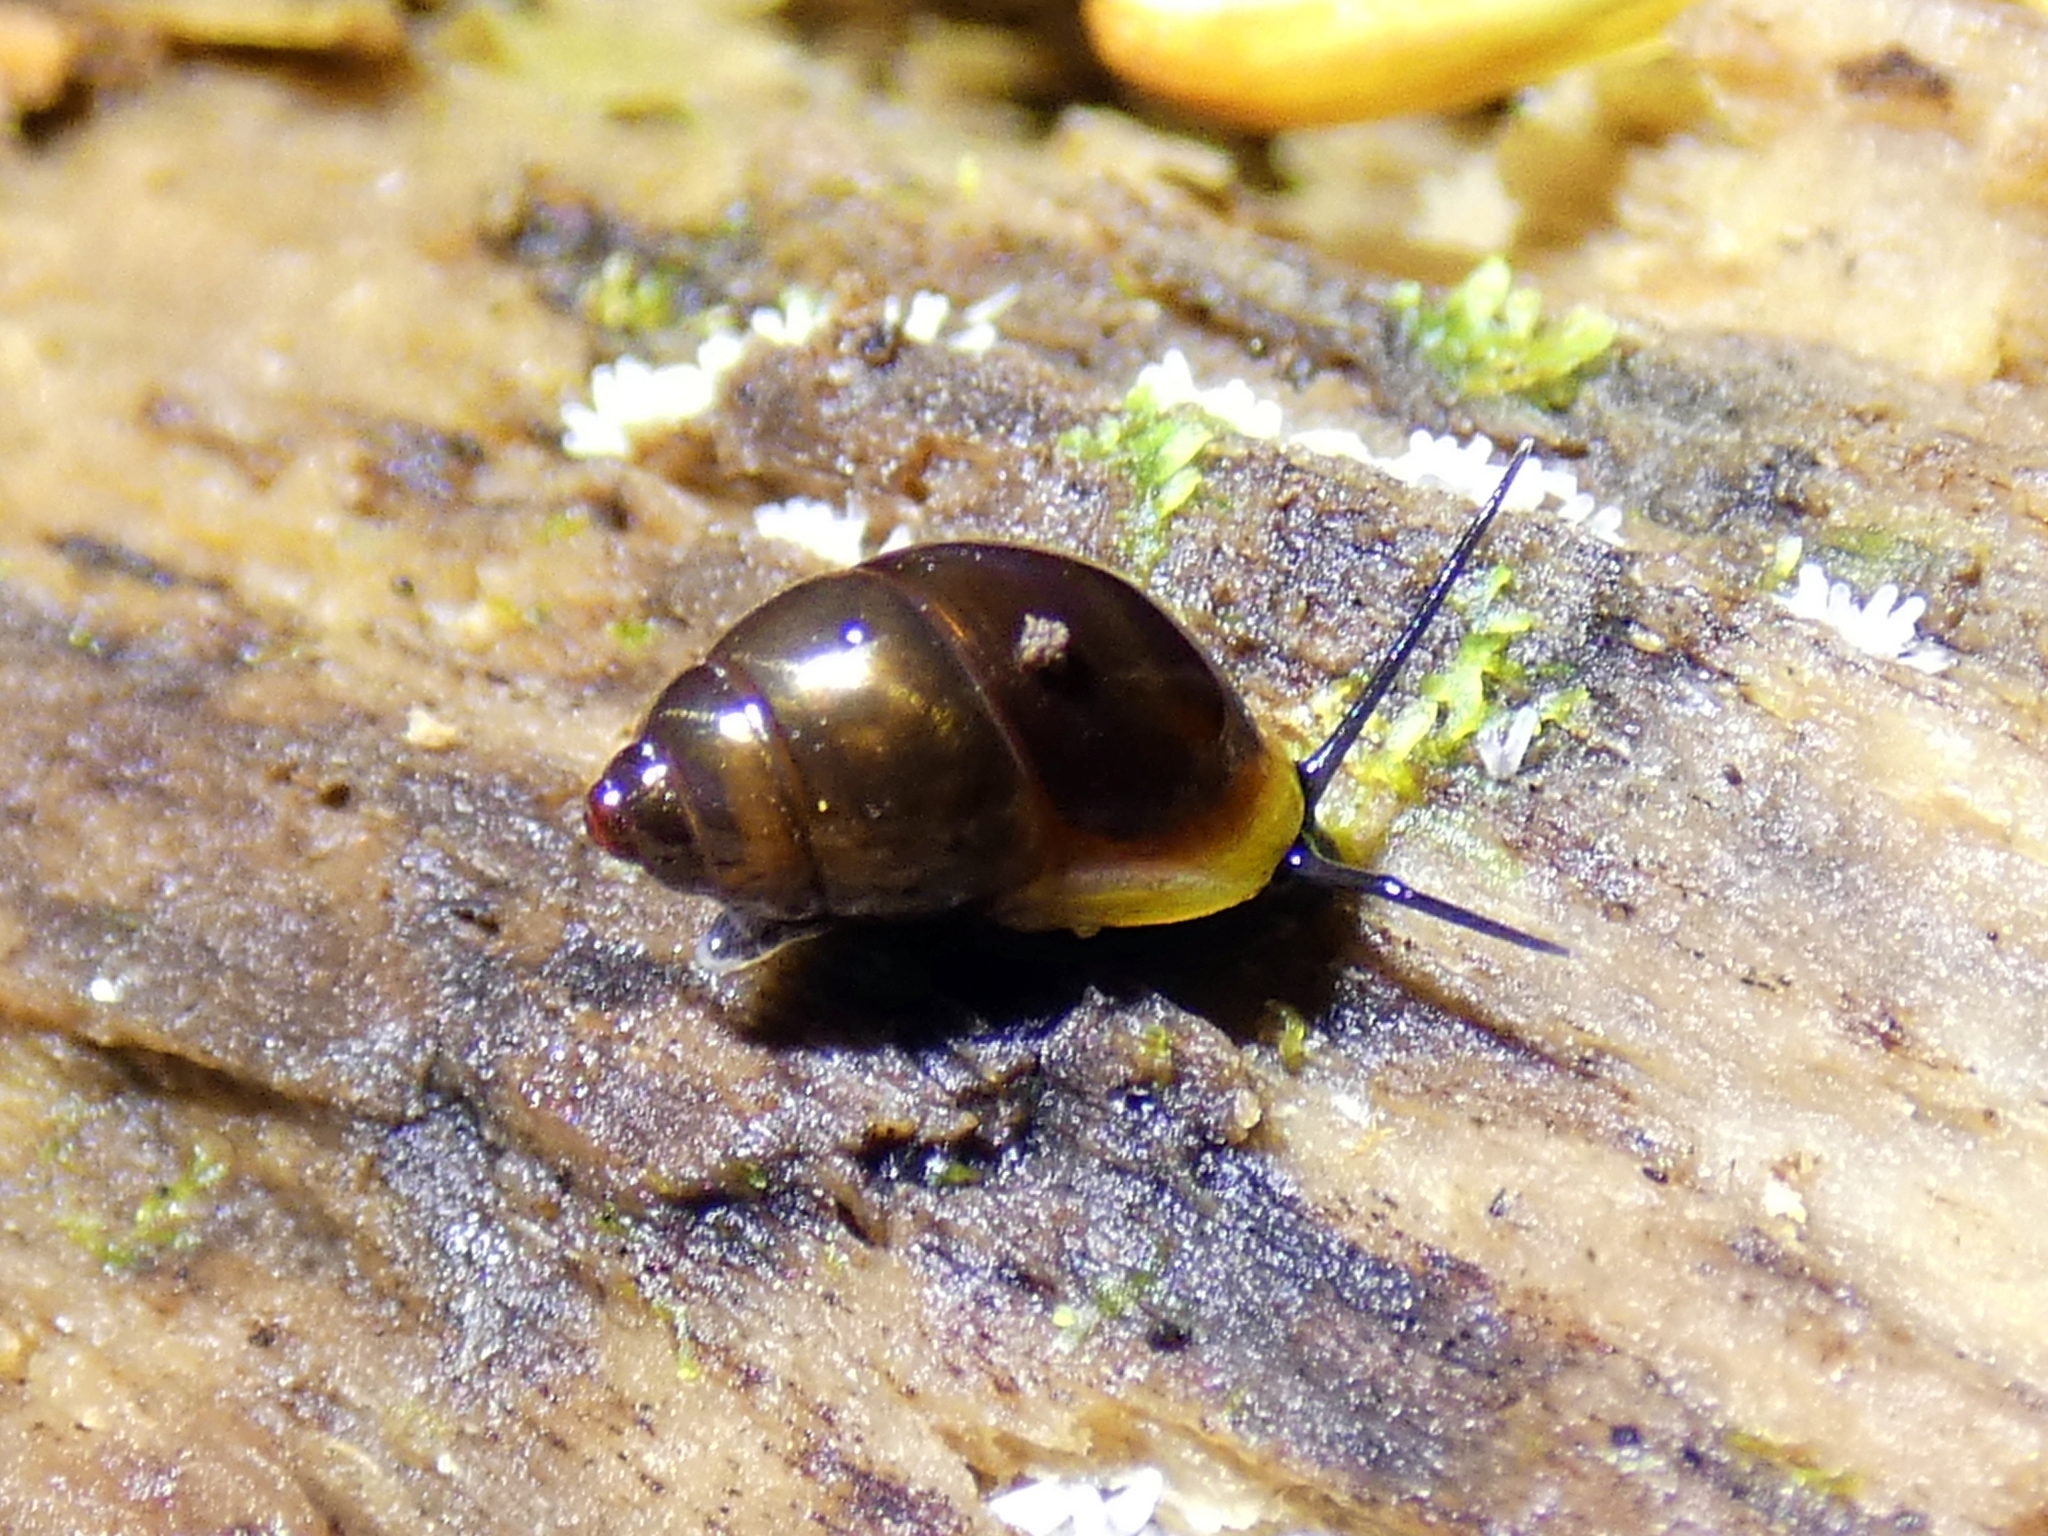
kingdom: Animalia
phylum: Mollusca
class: Gastropoda
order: Architaenioglossa
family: Pupinidae
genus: Signepupina
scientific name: Signepupina rubiflava
